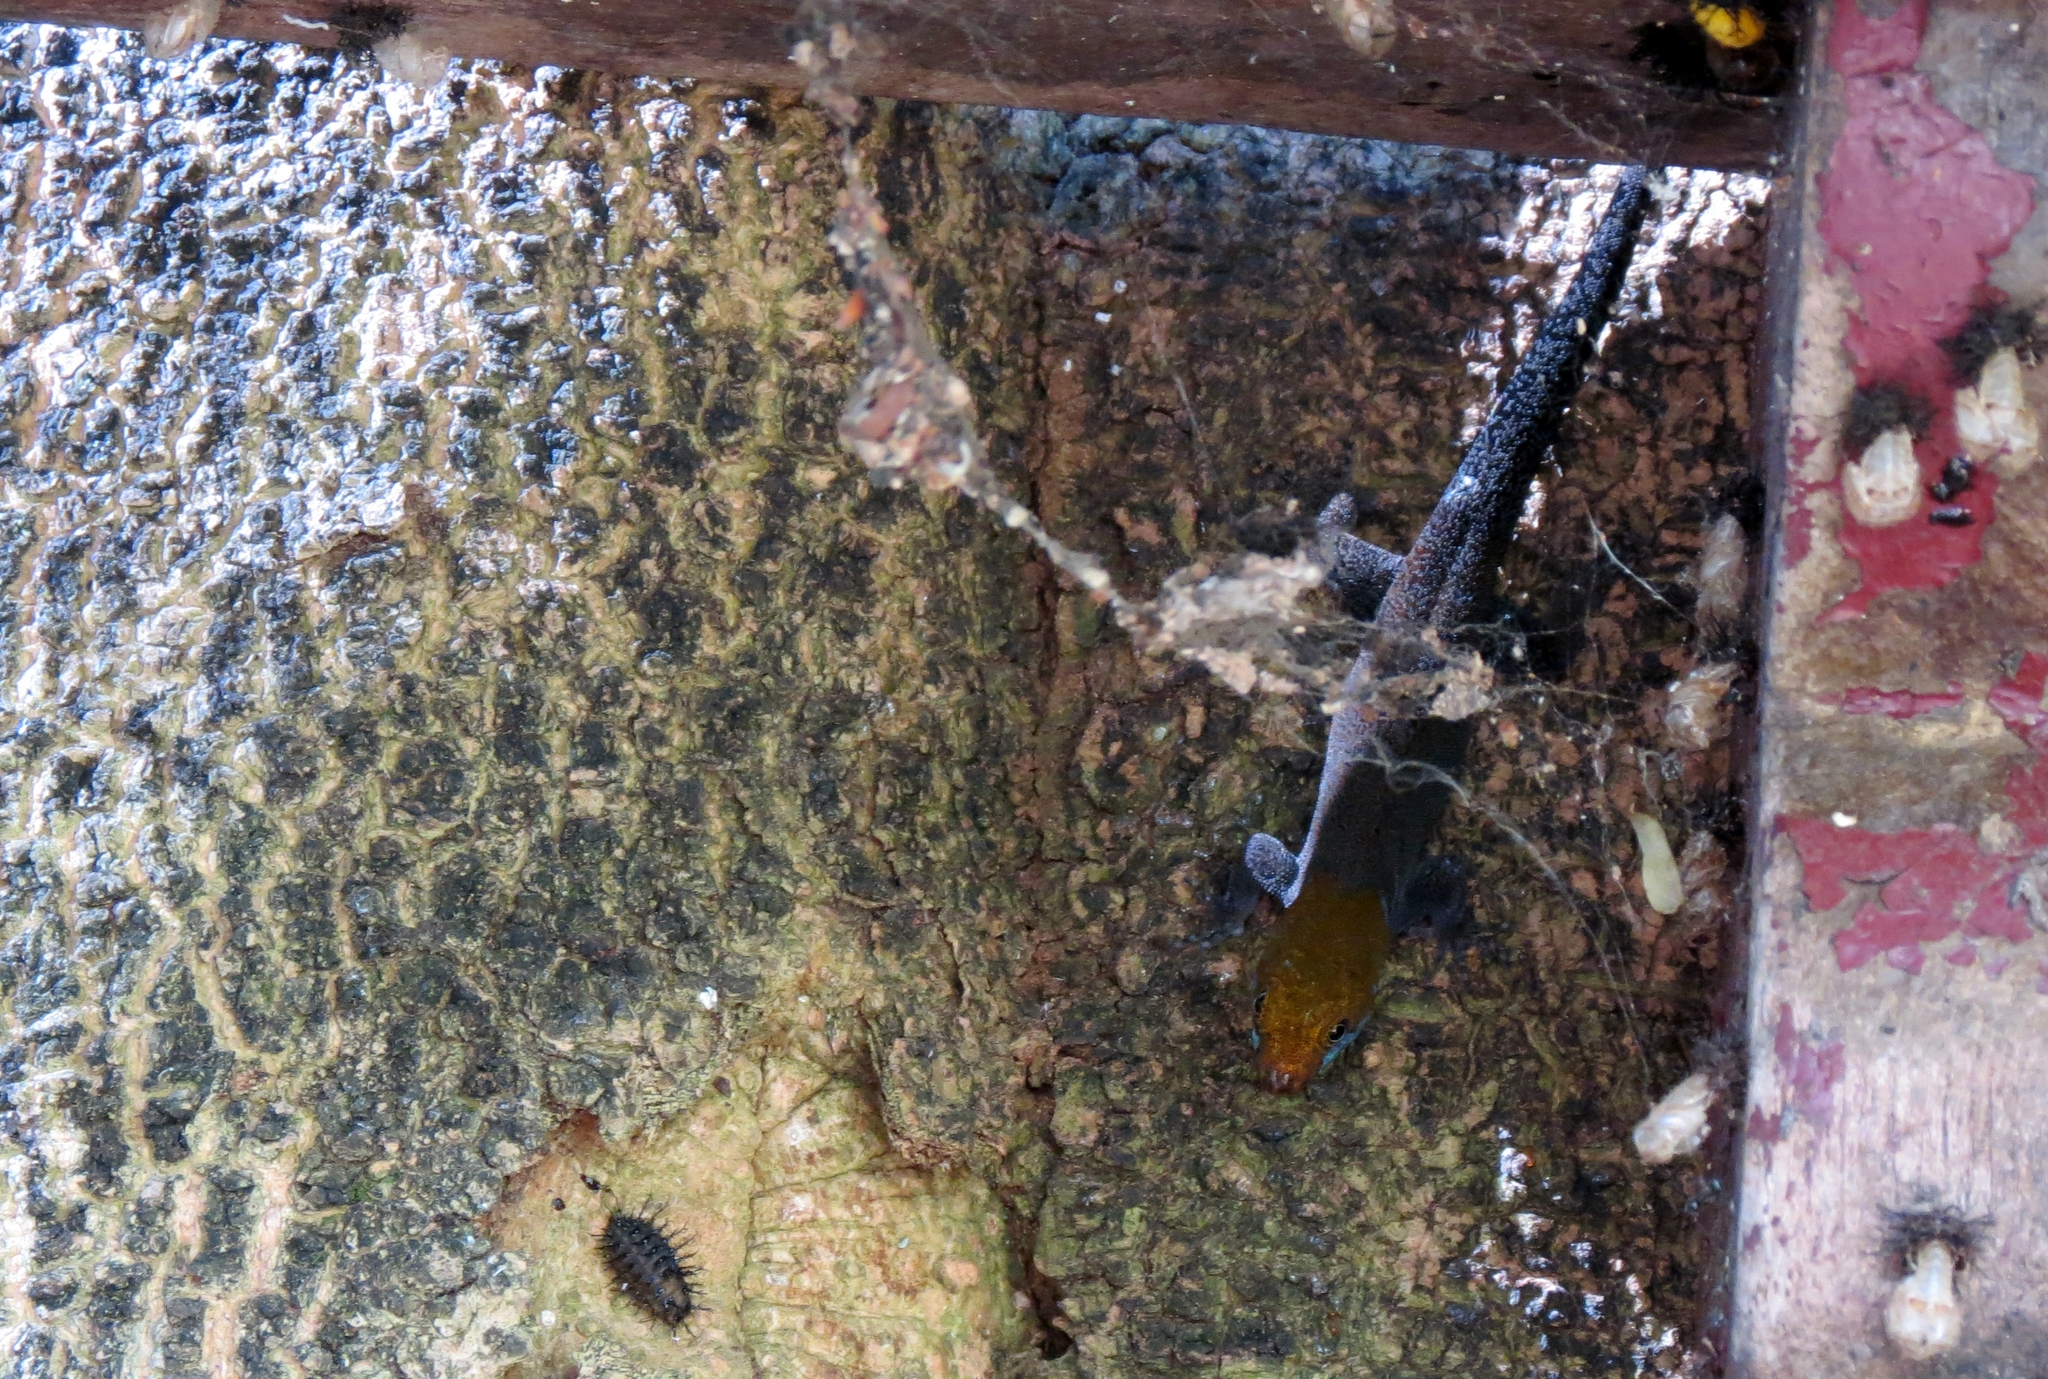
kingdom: Animalia
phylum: Chordata
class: Squamata
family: Sphaerodactylidae
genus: Gonatodes
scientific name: Gonatodes albogularis
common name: Yellow-headed gecko
